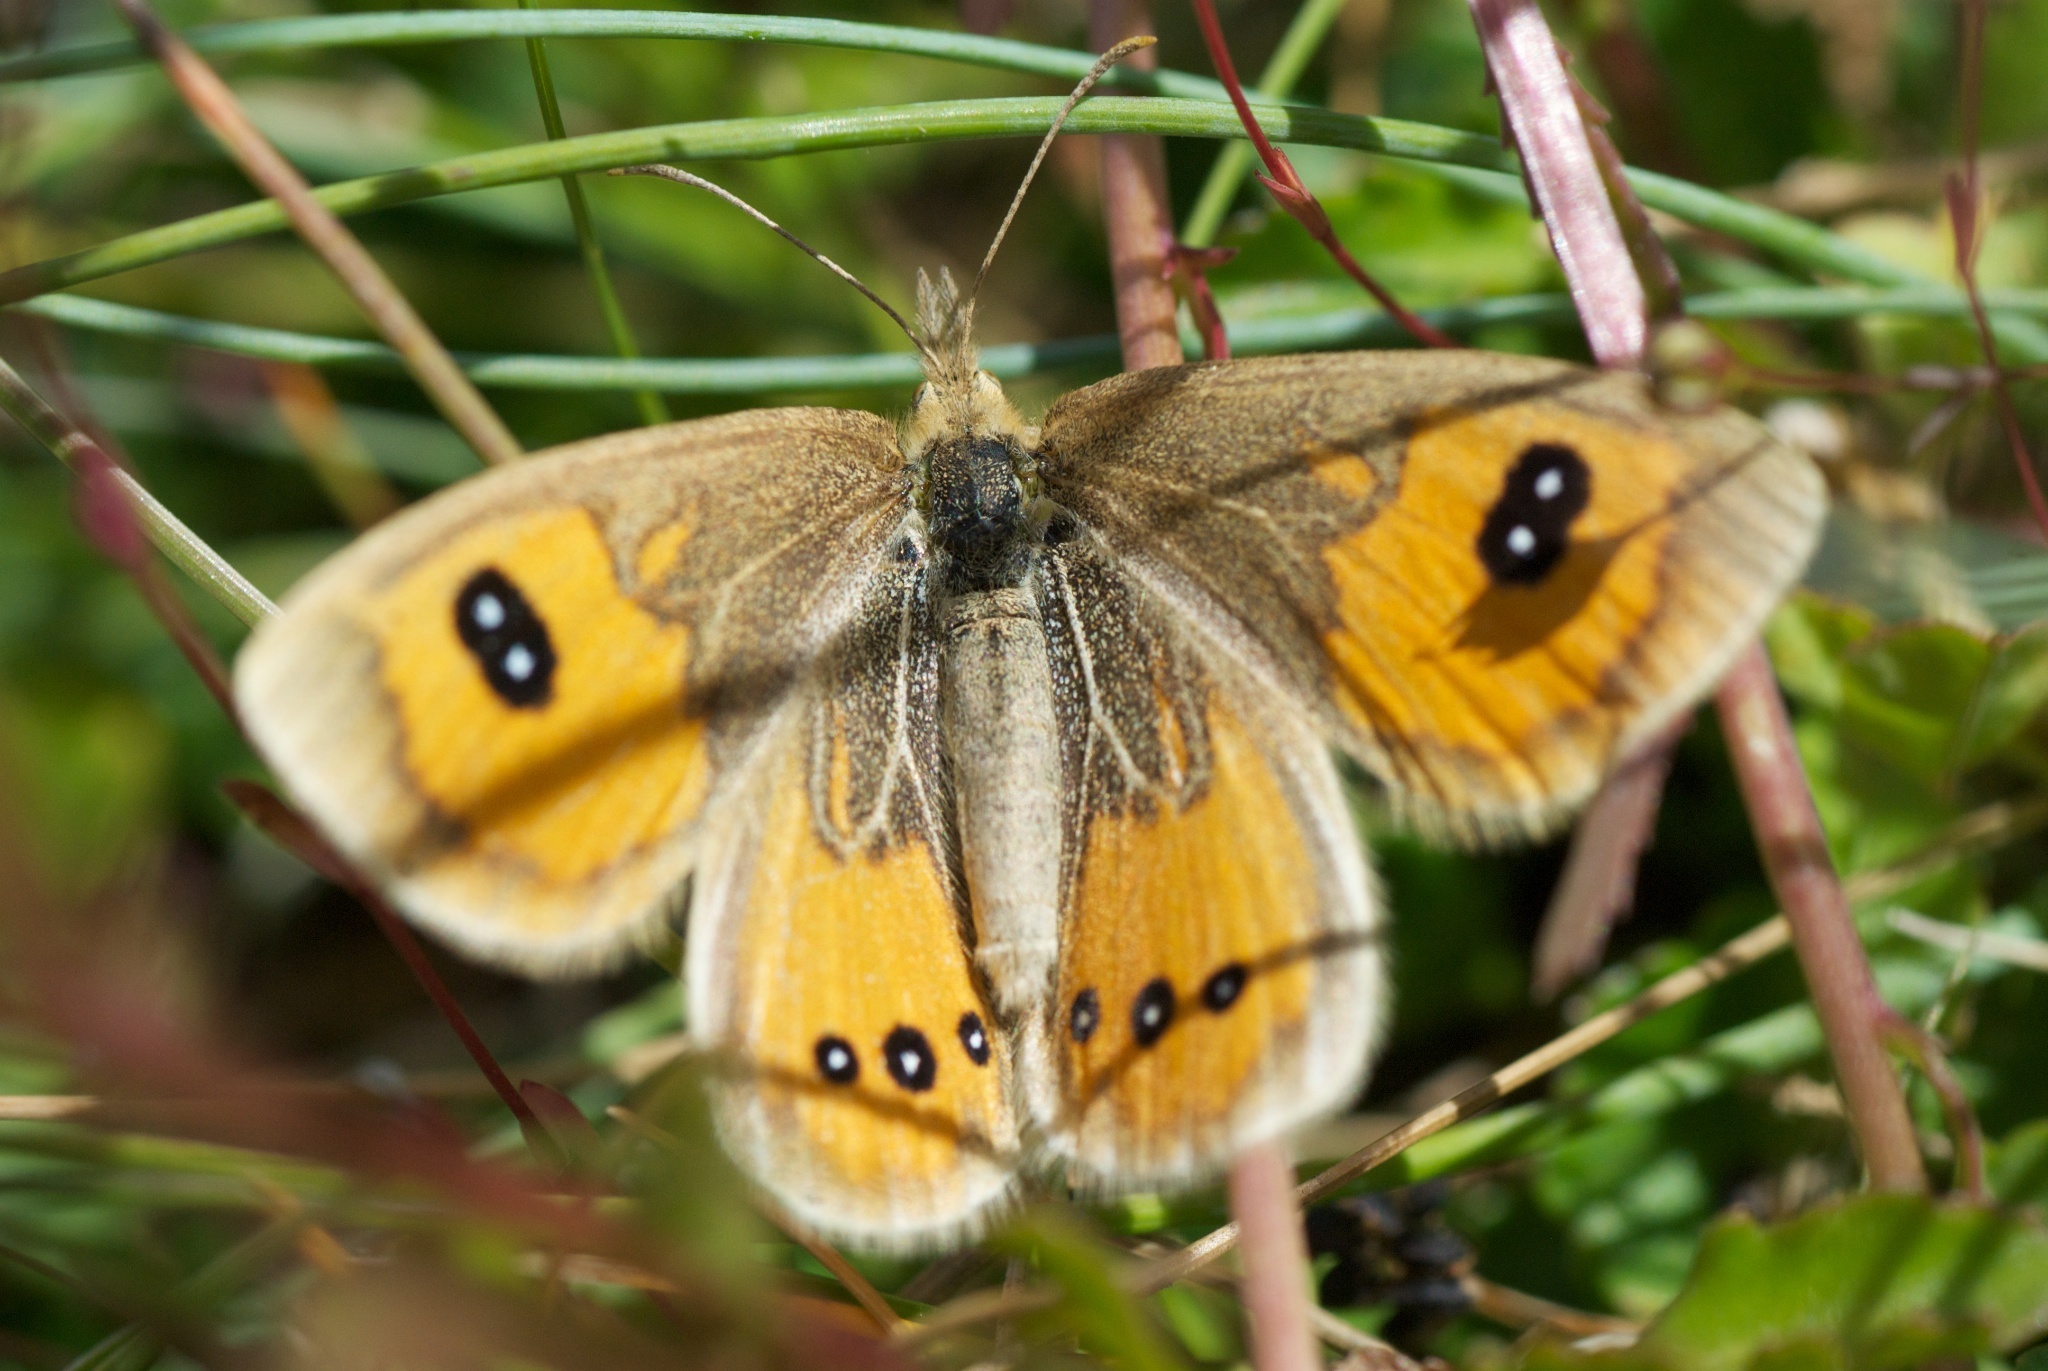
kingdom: Animalia
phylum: Arthropoda
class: Insecta
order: Lepidoptera
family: Nymphalidae
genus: Argyrophenga
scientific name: Argyrophenga antipodum
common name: Common tussock butterfly
